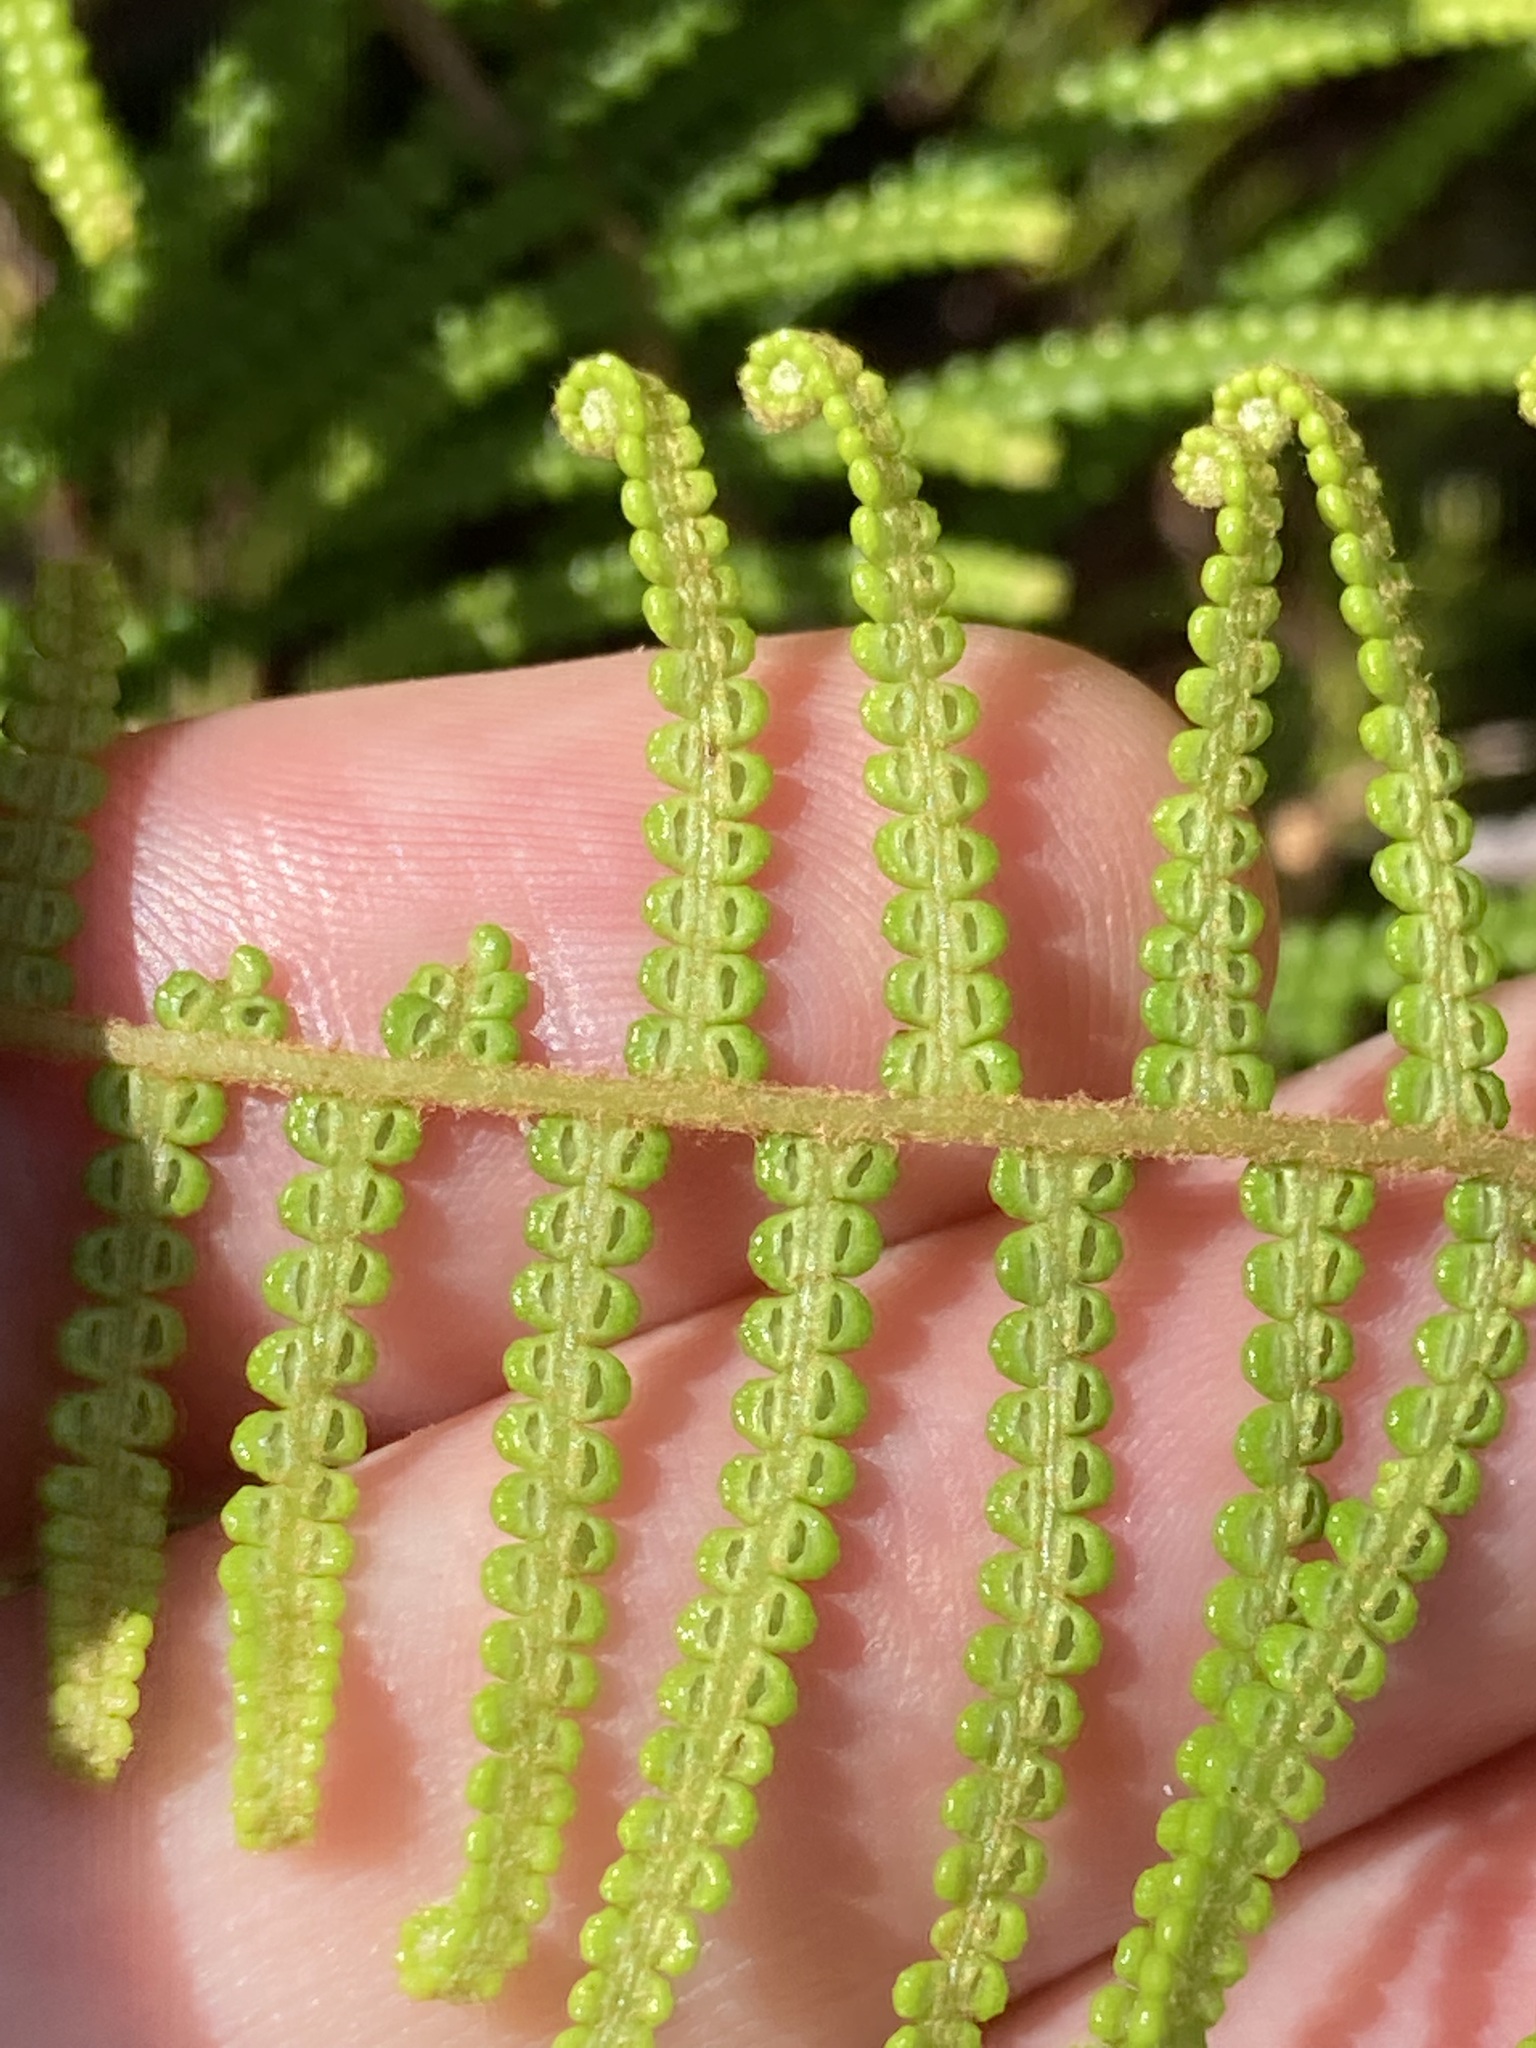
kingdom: Plantae
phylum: Tracheophyta
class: Polypodiopsida
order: Gleicheniales
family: Gleicheniaceae
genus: Gleichenia
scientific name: Gleichenia dicarpa
